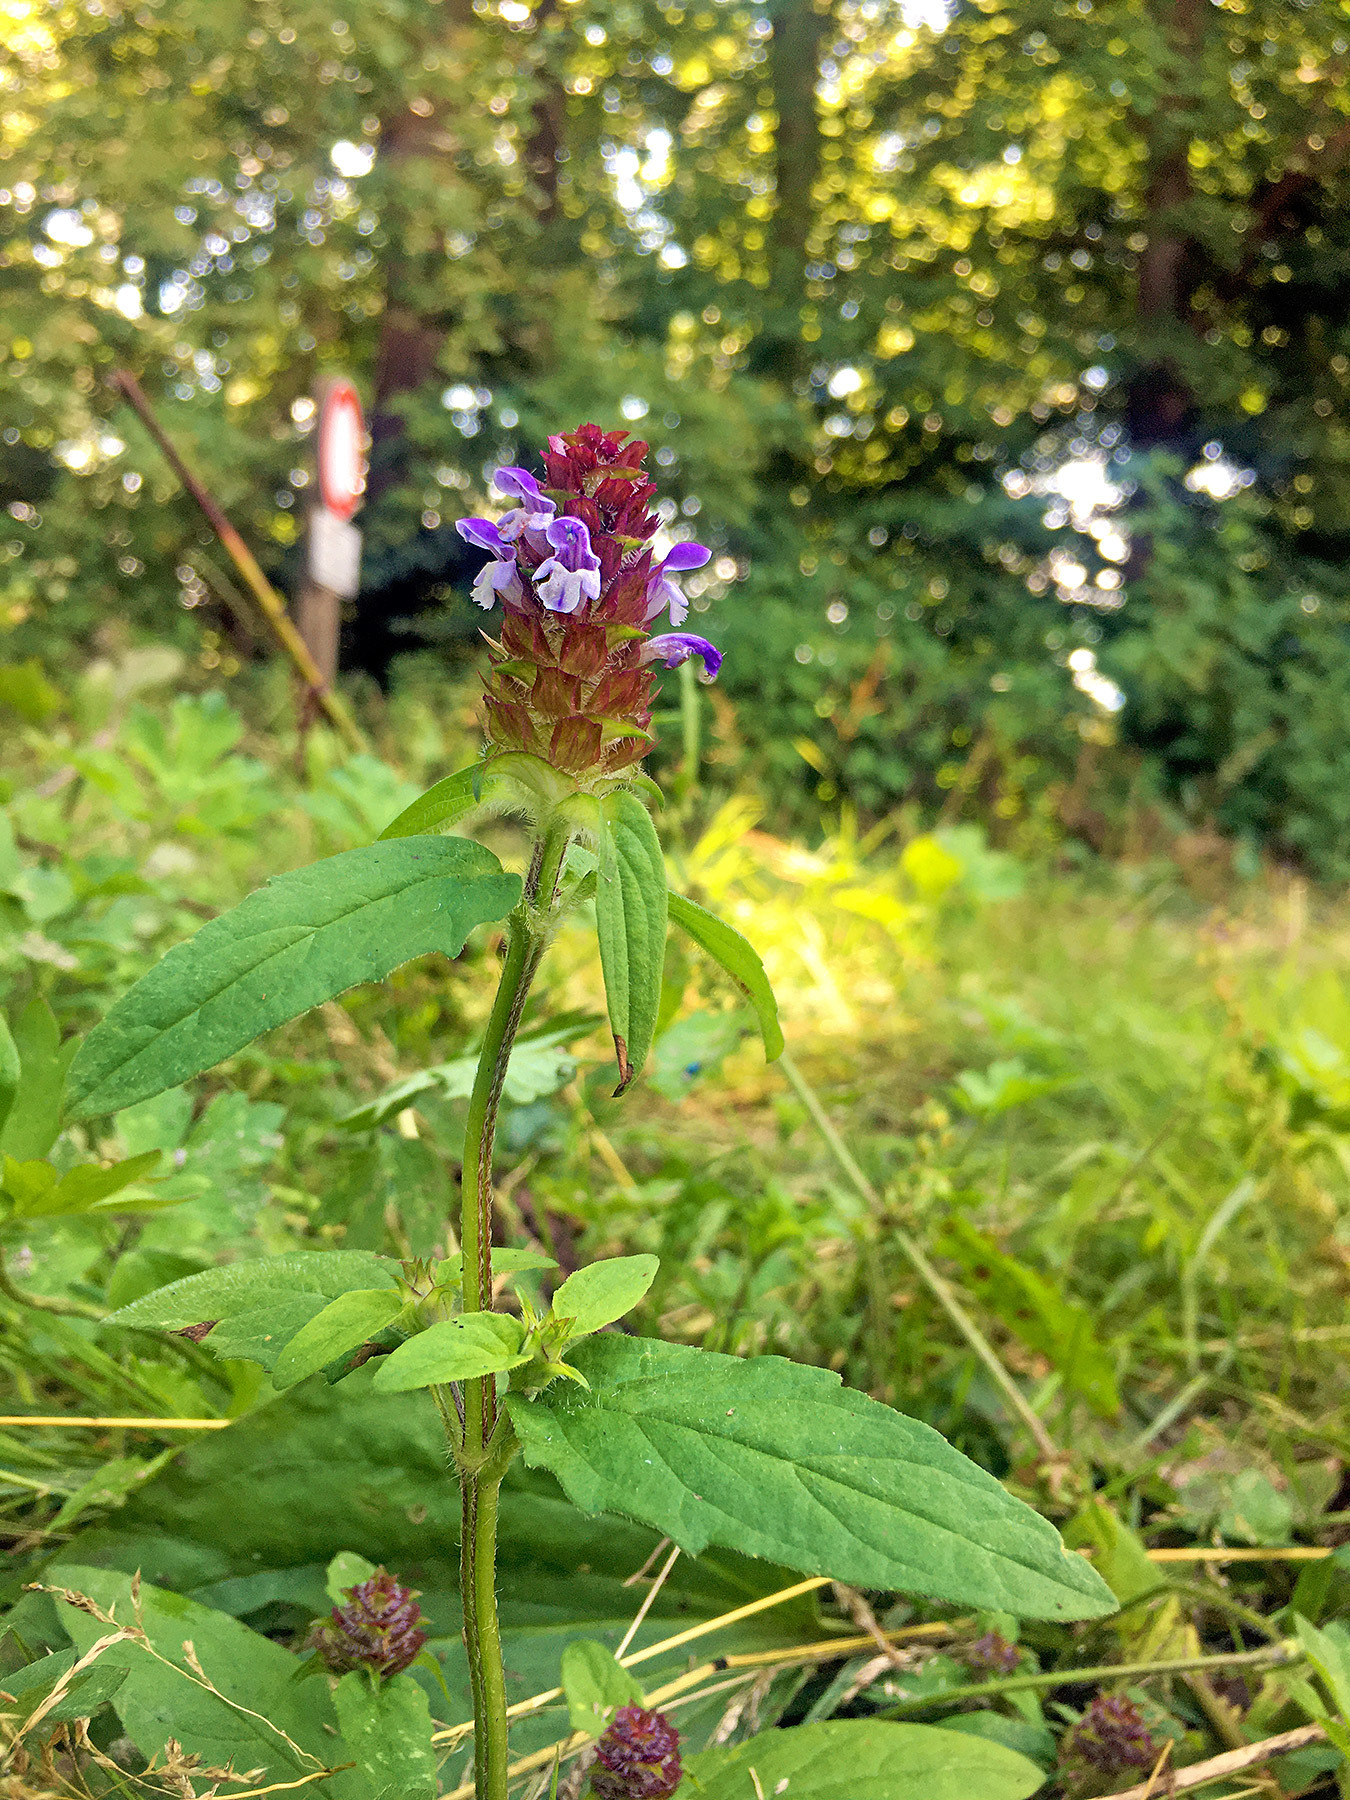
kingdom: Plantae
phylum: Tracheophyta
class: Magnoliopsida
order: Lamiales
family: Lamiaceae
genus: Prunella
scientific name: Prunella vulgaris
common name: Heal-all
